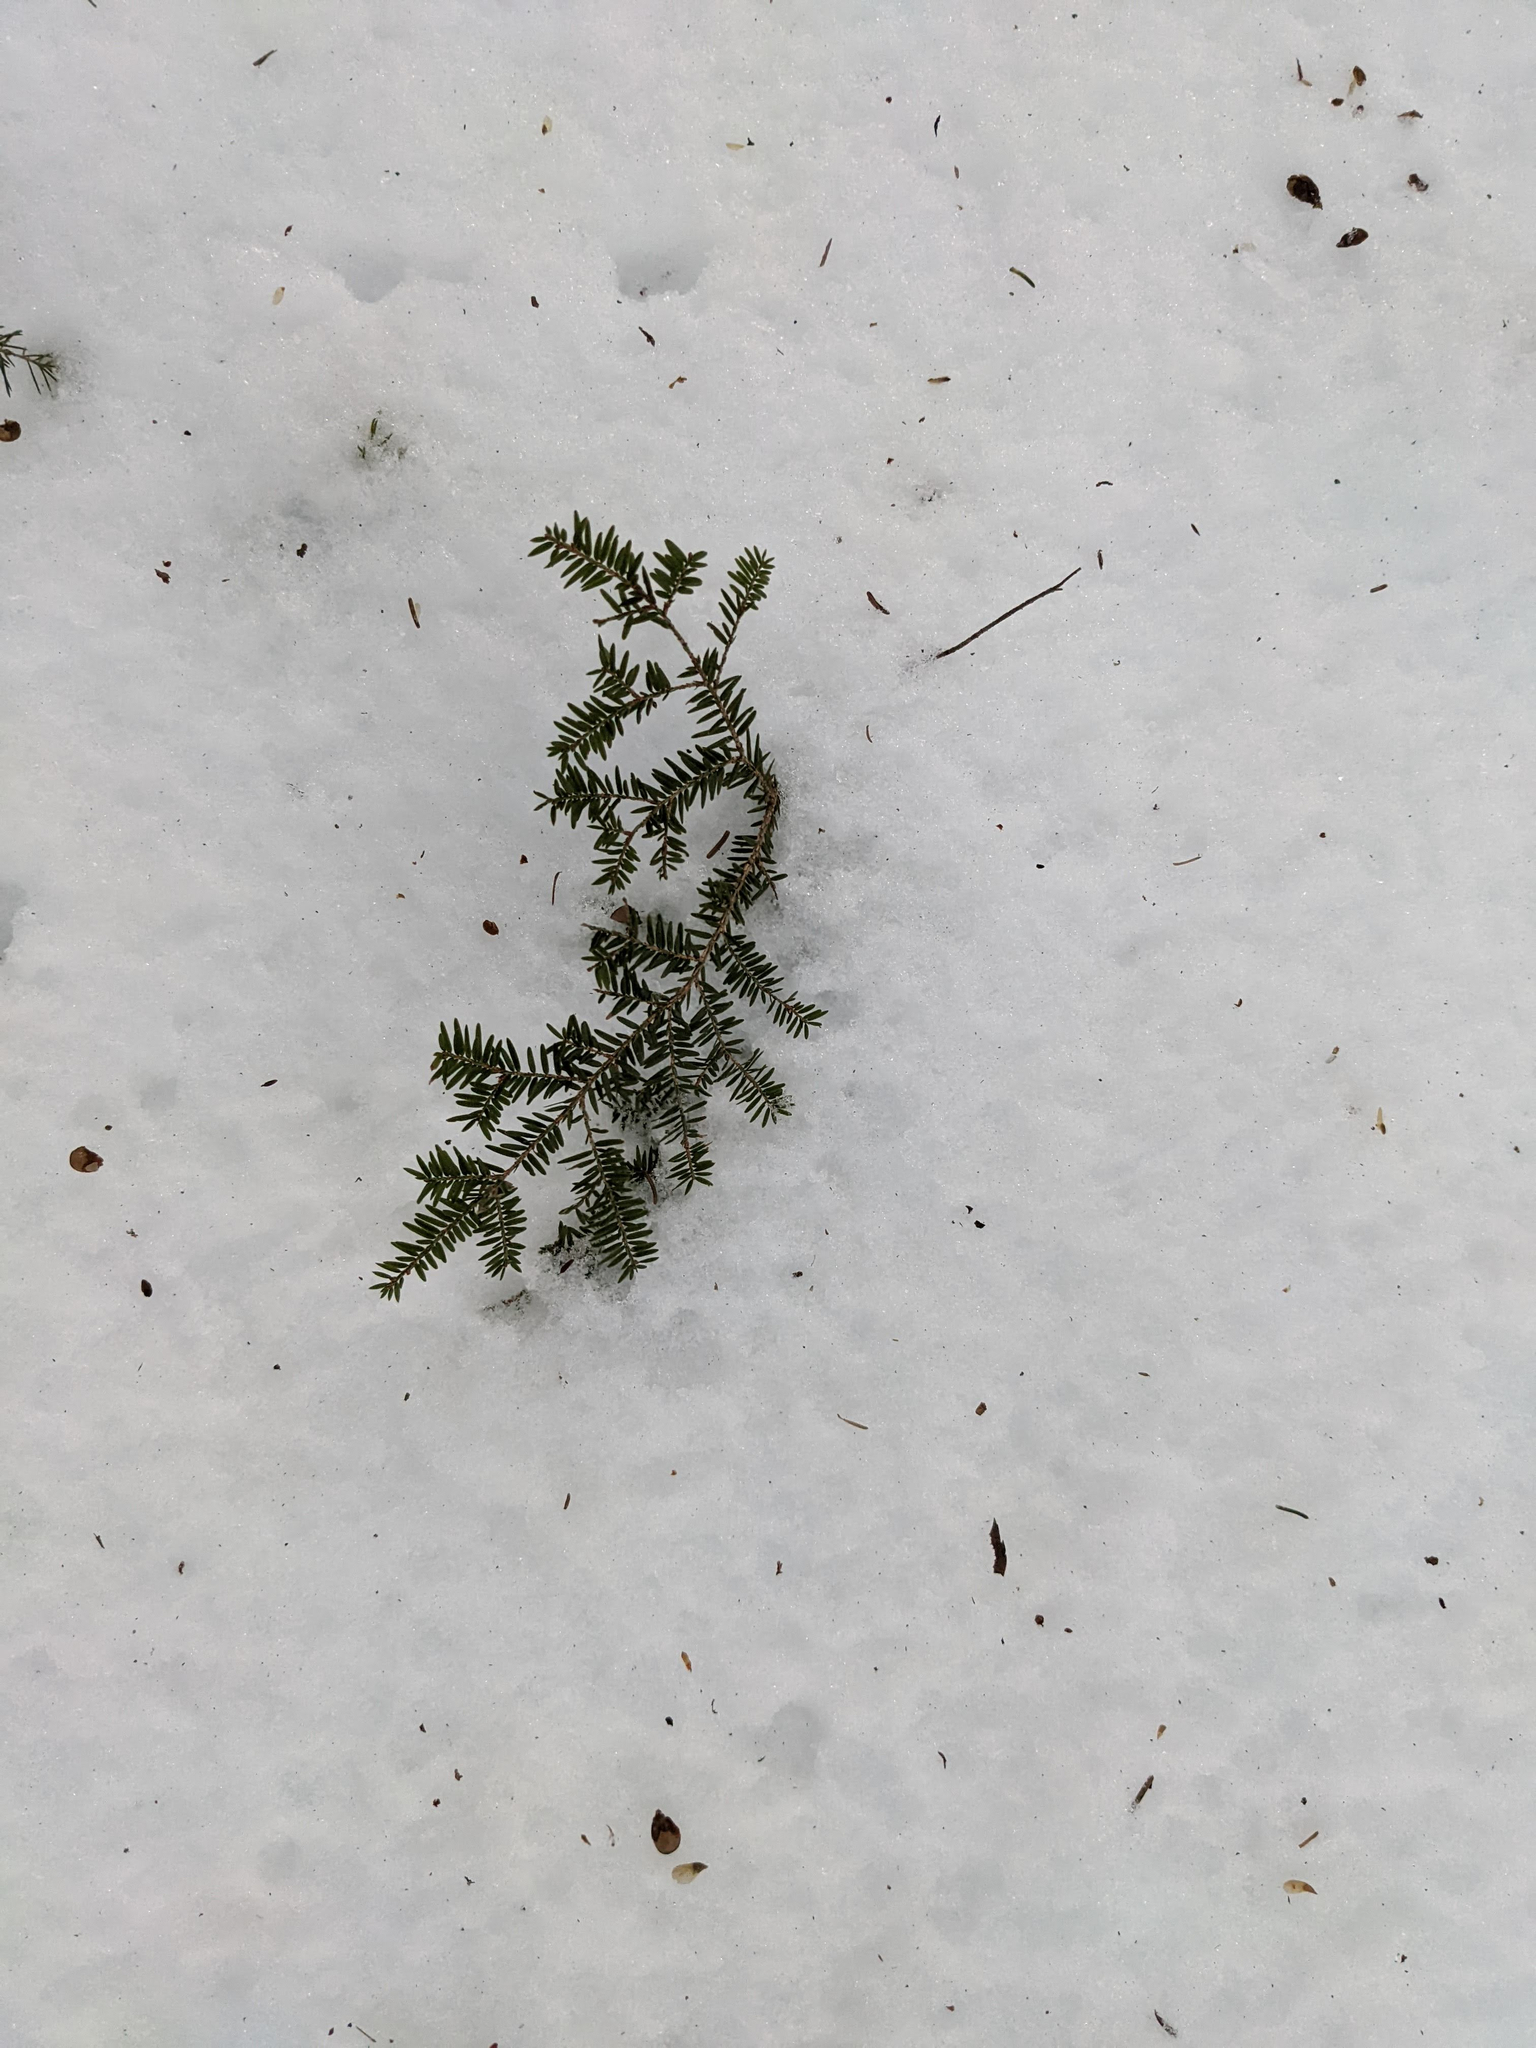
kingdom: Plantae
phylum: Tracheophyta
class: Pinopsida
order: Pinales
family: Pinaceae
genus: Tsuga
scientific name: Tsuga canadensis
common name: Eastern hemlock
